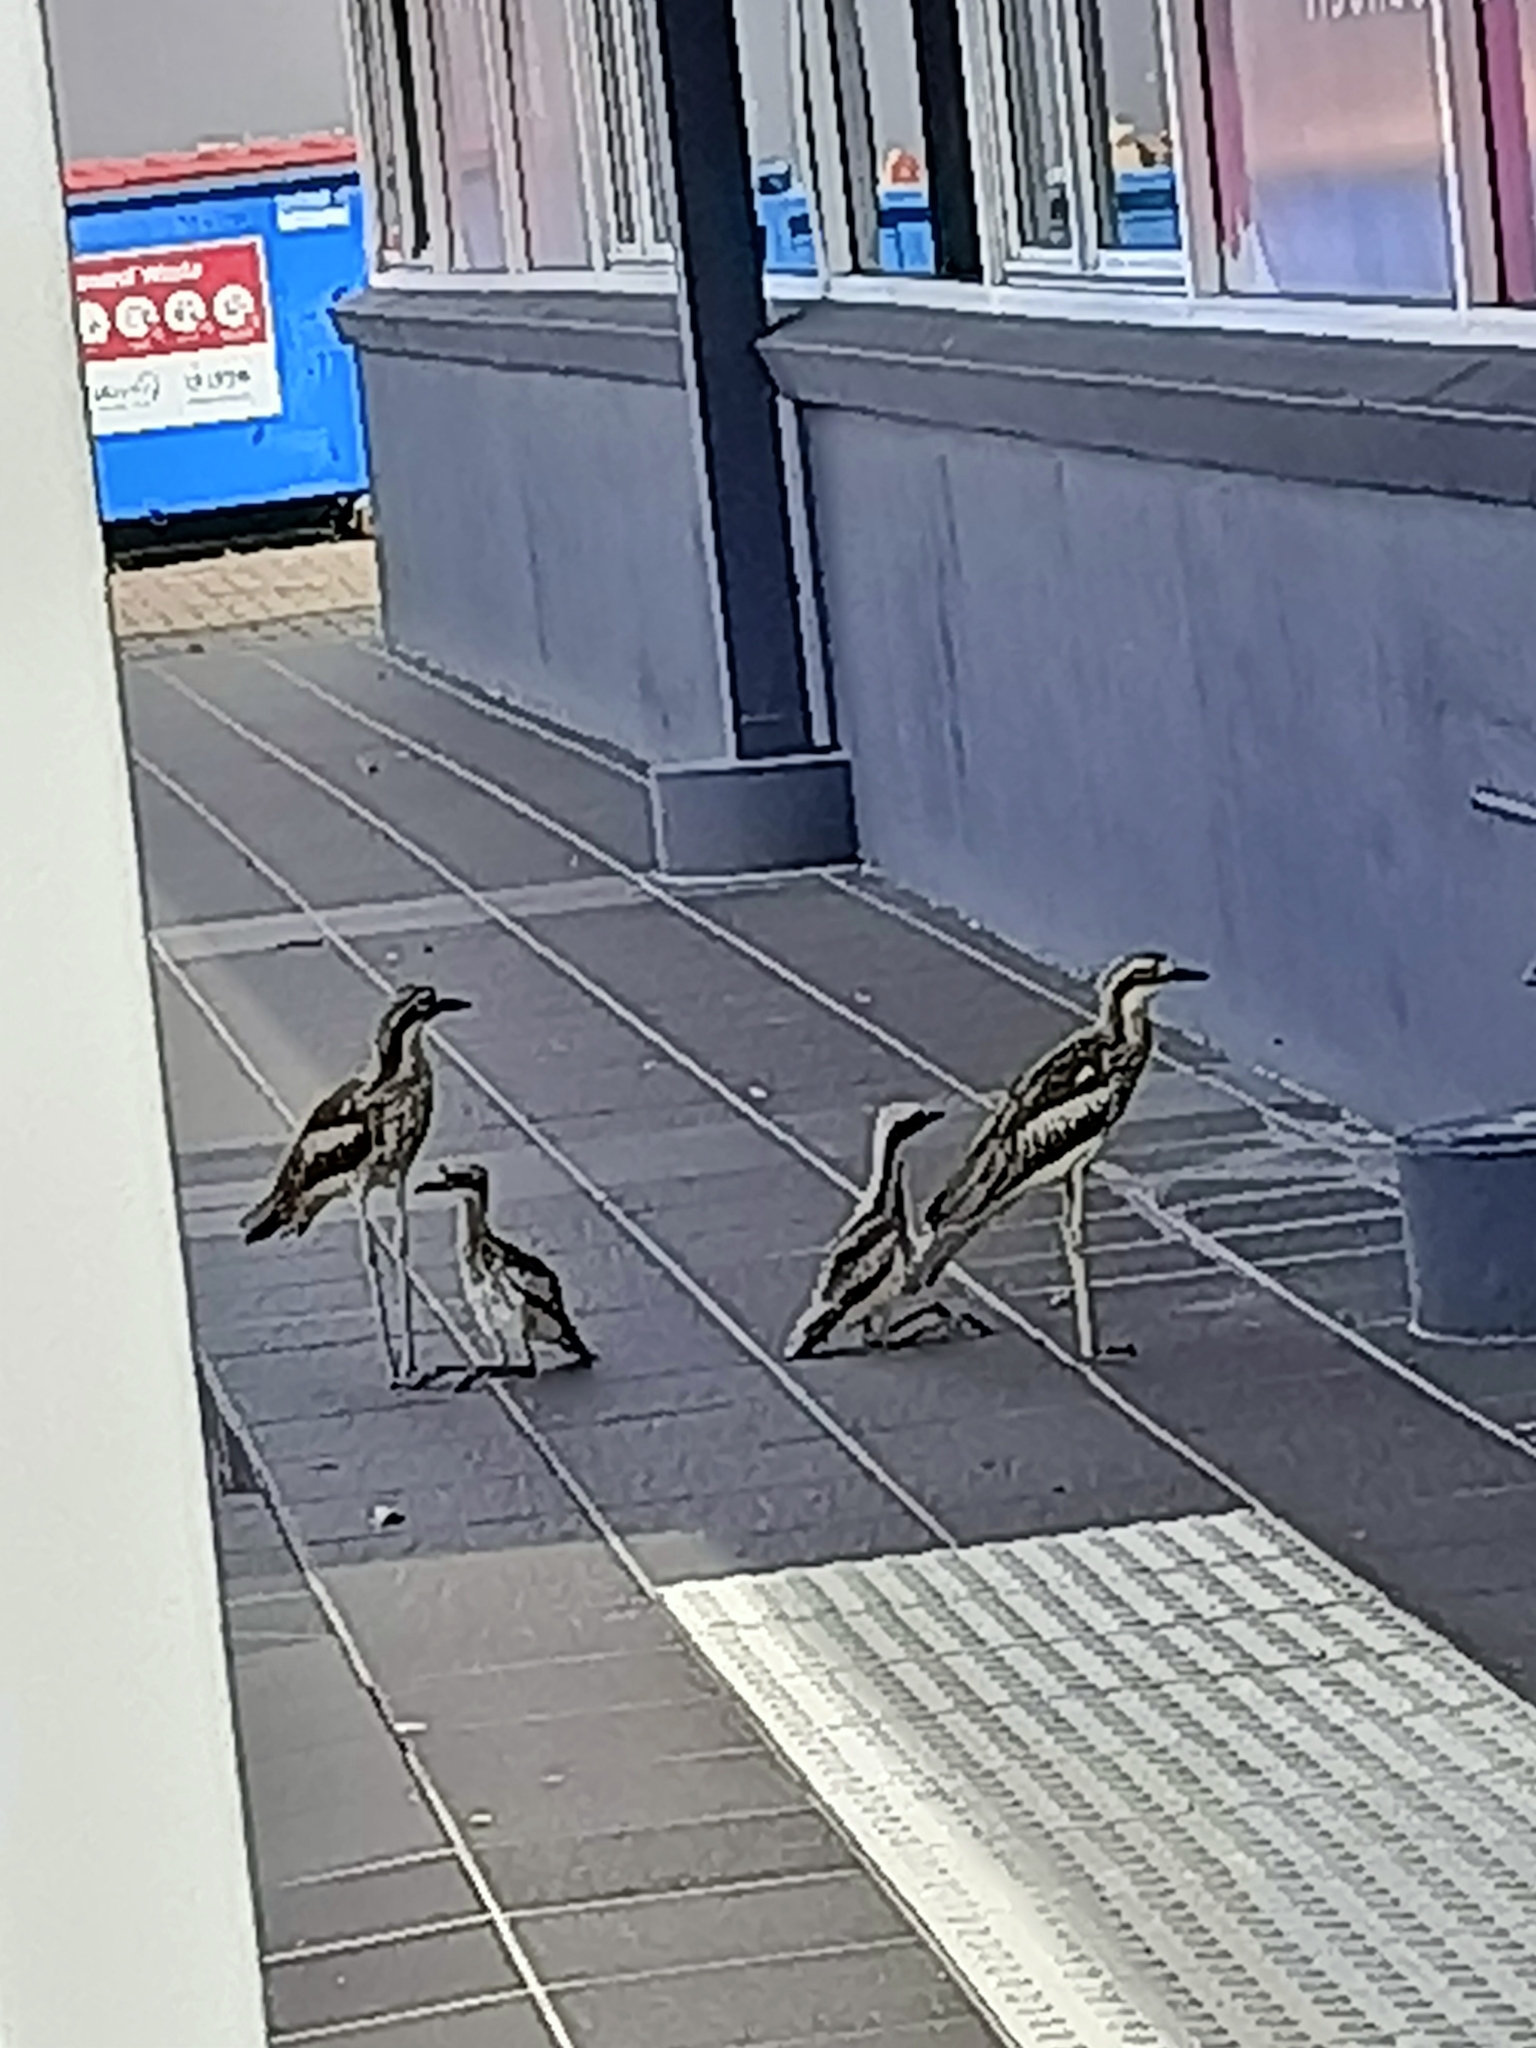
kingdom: Animalia
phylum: Chordata
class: Aves
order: Charadriiformes
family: Burhinidae
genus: Burhinus
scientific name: Burhinus grallarius
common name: Bush stone-curlew
